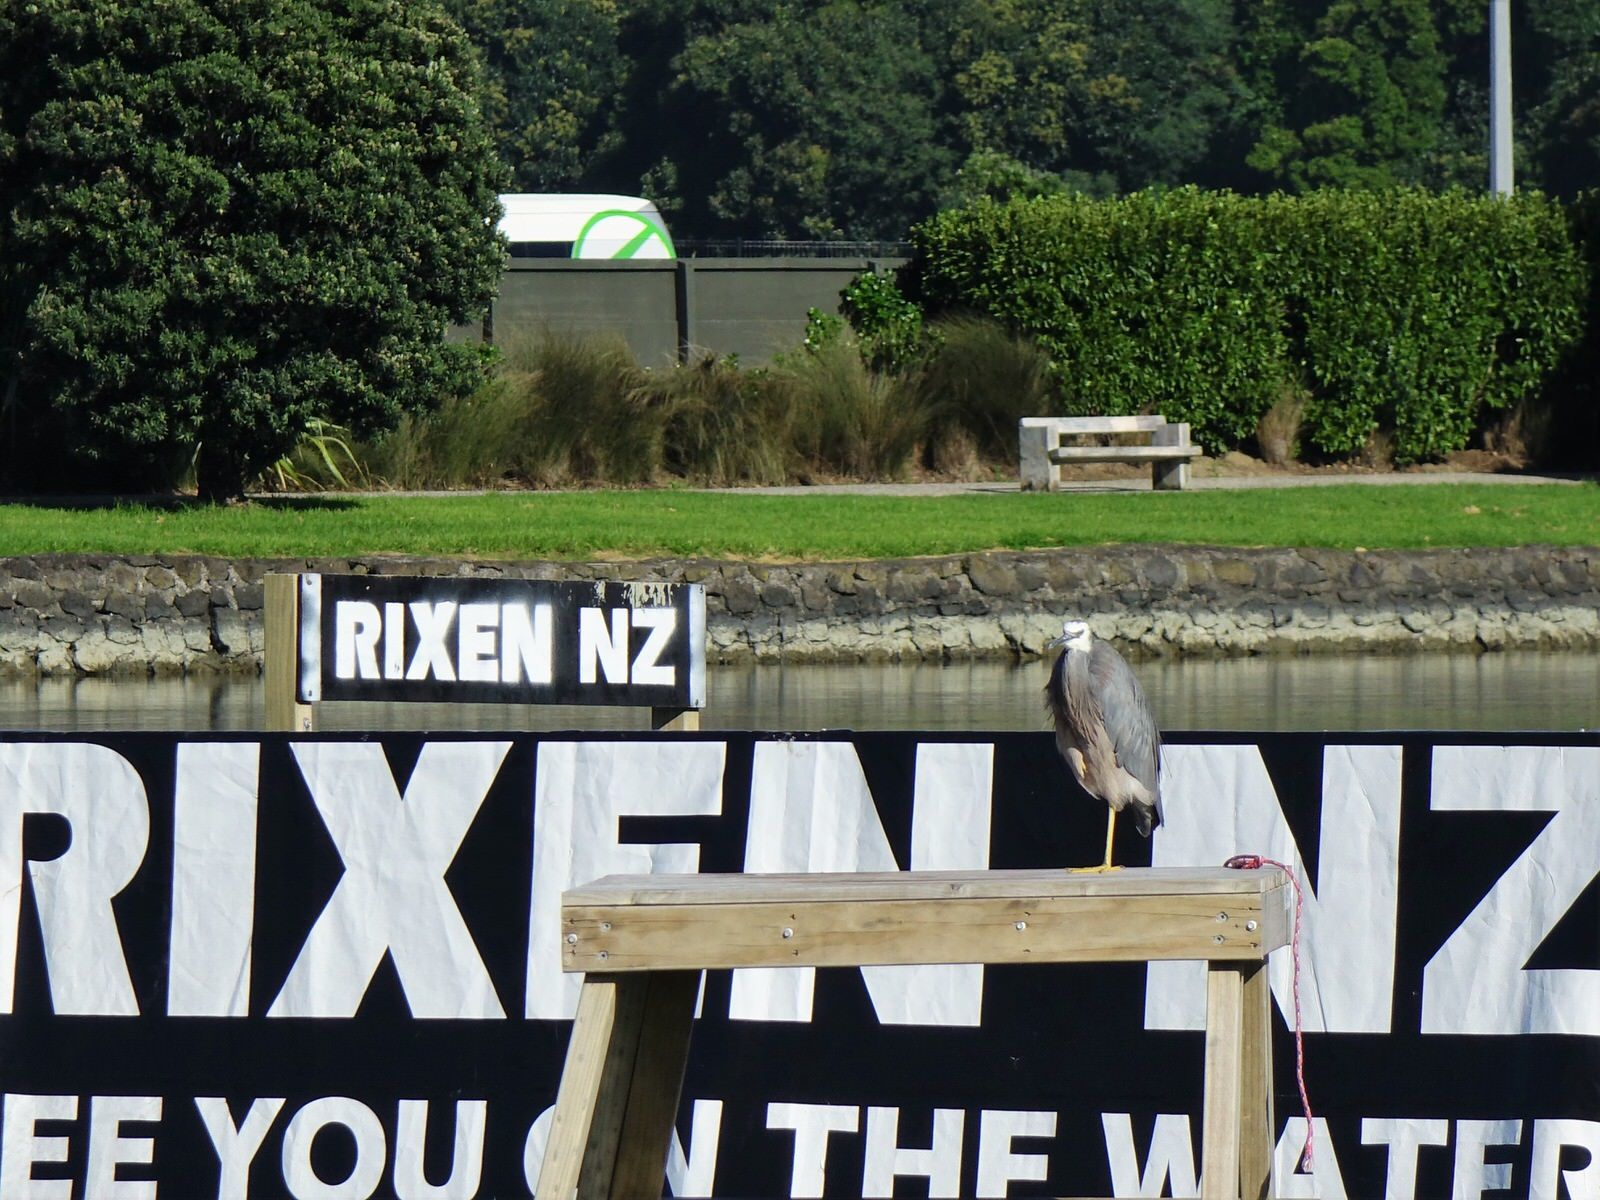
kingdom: Animalia
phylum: Chordata
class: Aves
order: Pelecaniformes
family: Ardeidae
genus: Egretta
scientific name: Egretta novaehollandiae
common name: White-faced heron
